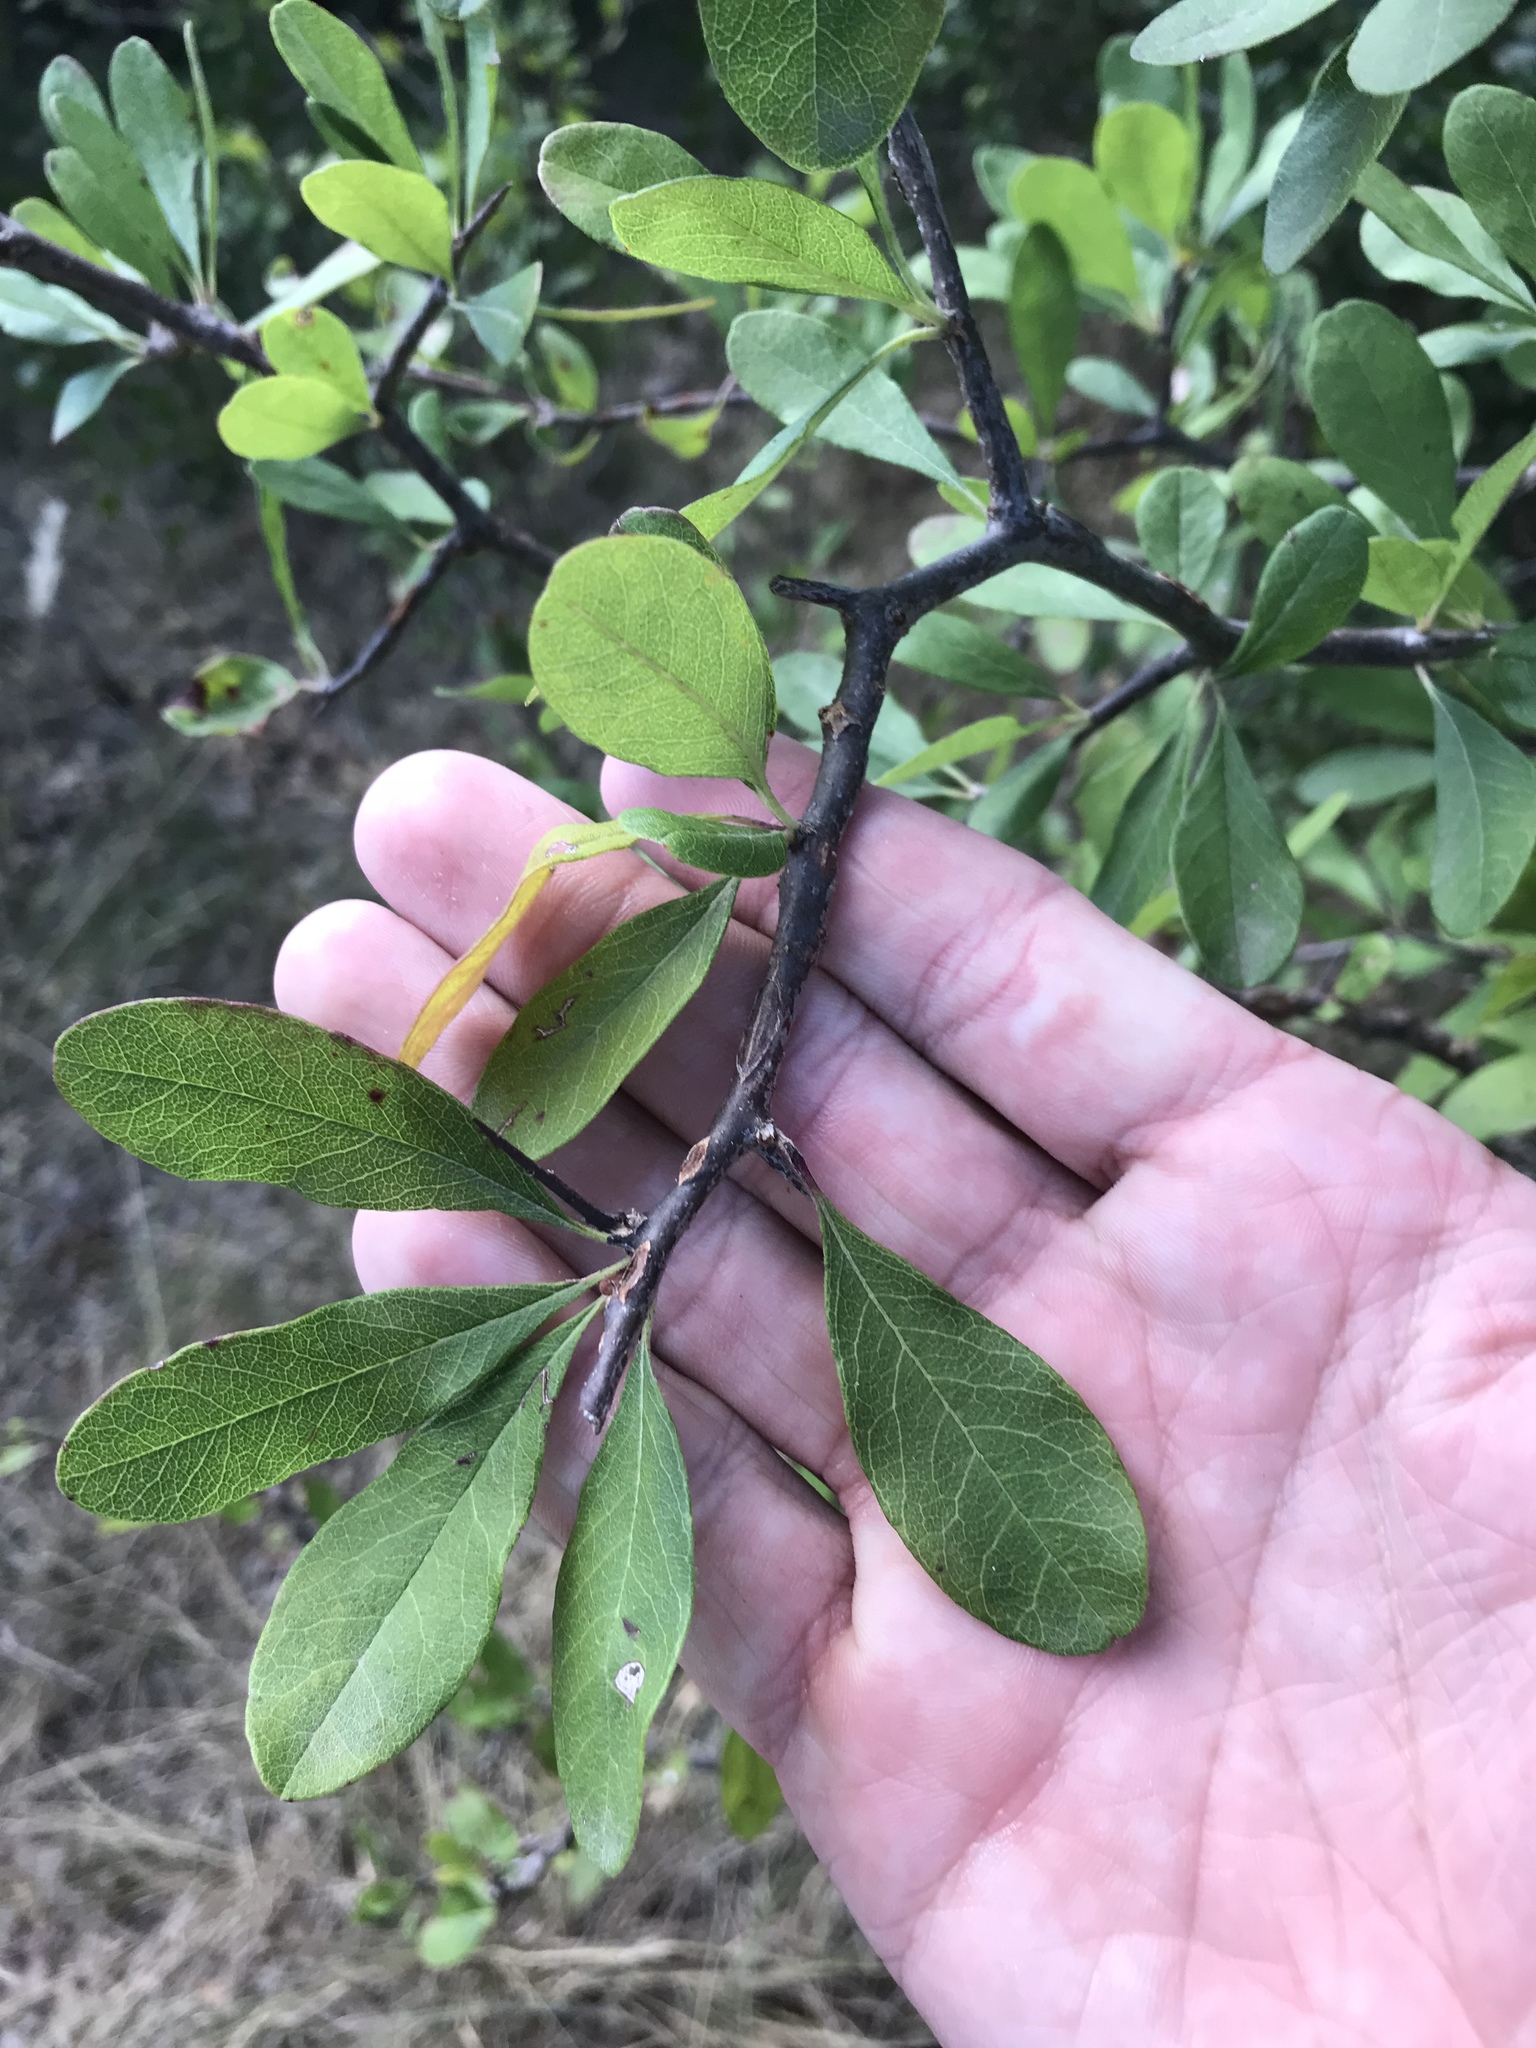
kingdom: Plantae
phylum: Tracheophyta
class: Magnoliopsida
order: Ericales
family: Sapotaceae
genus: Sideroxylon
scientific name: Sideroxylon lanuginosum
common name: Chittamwood
